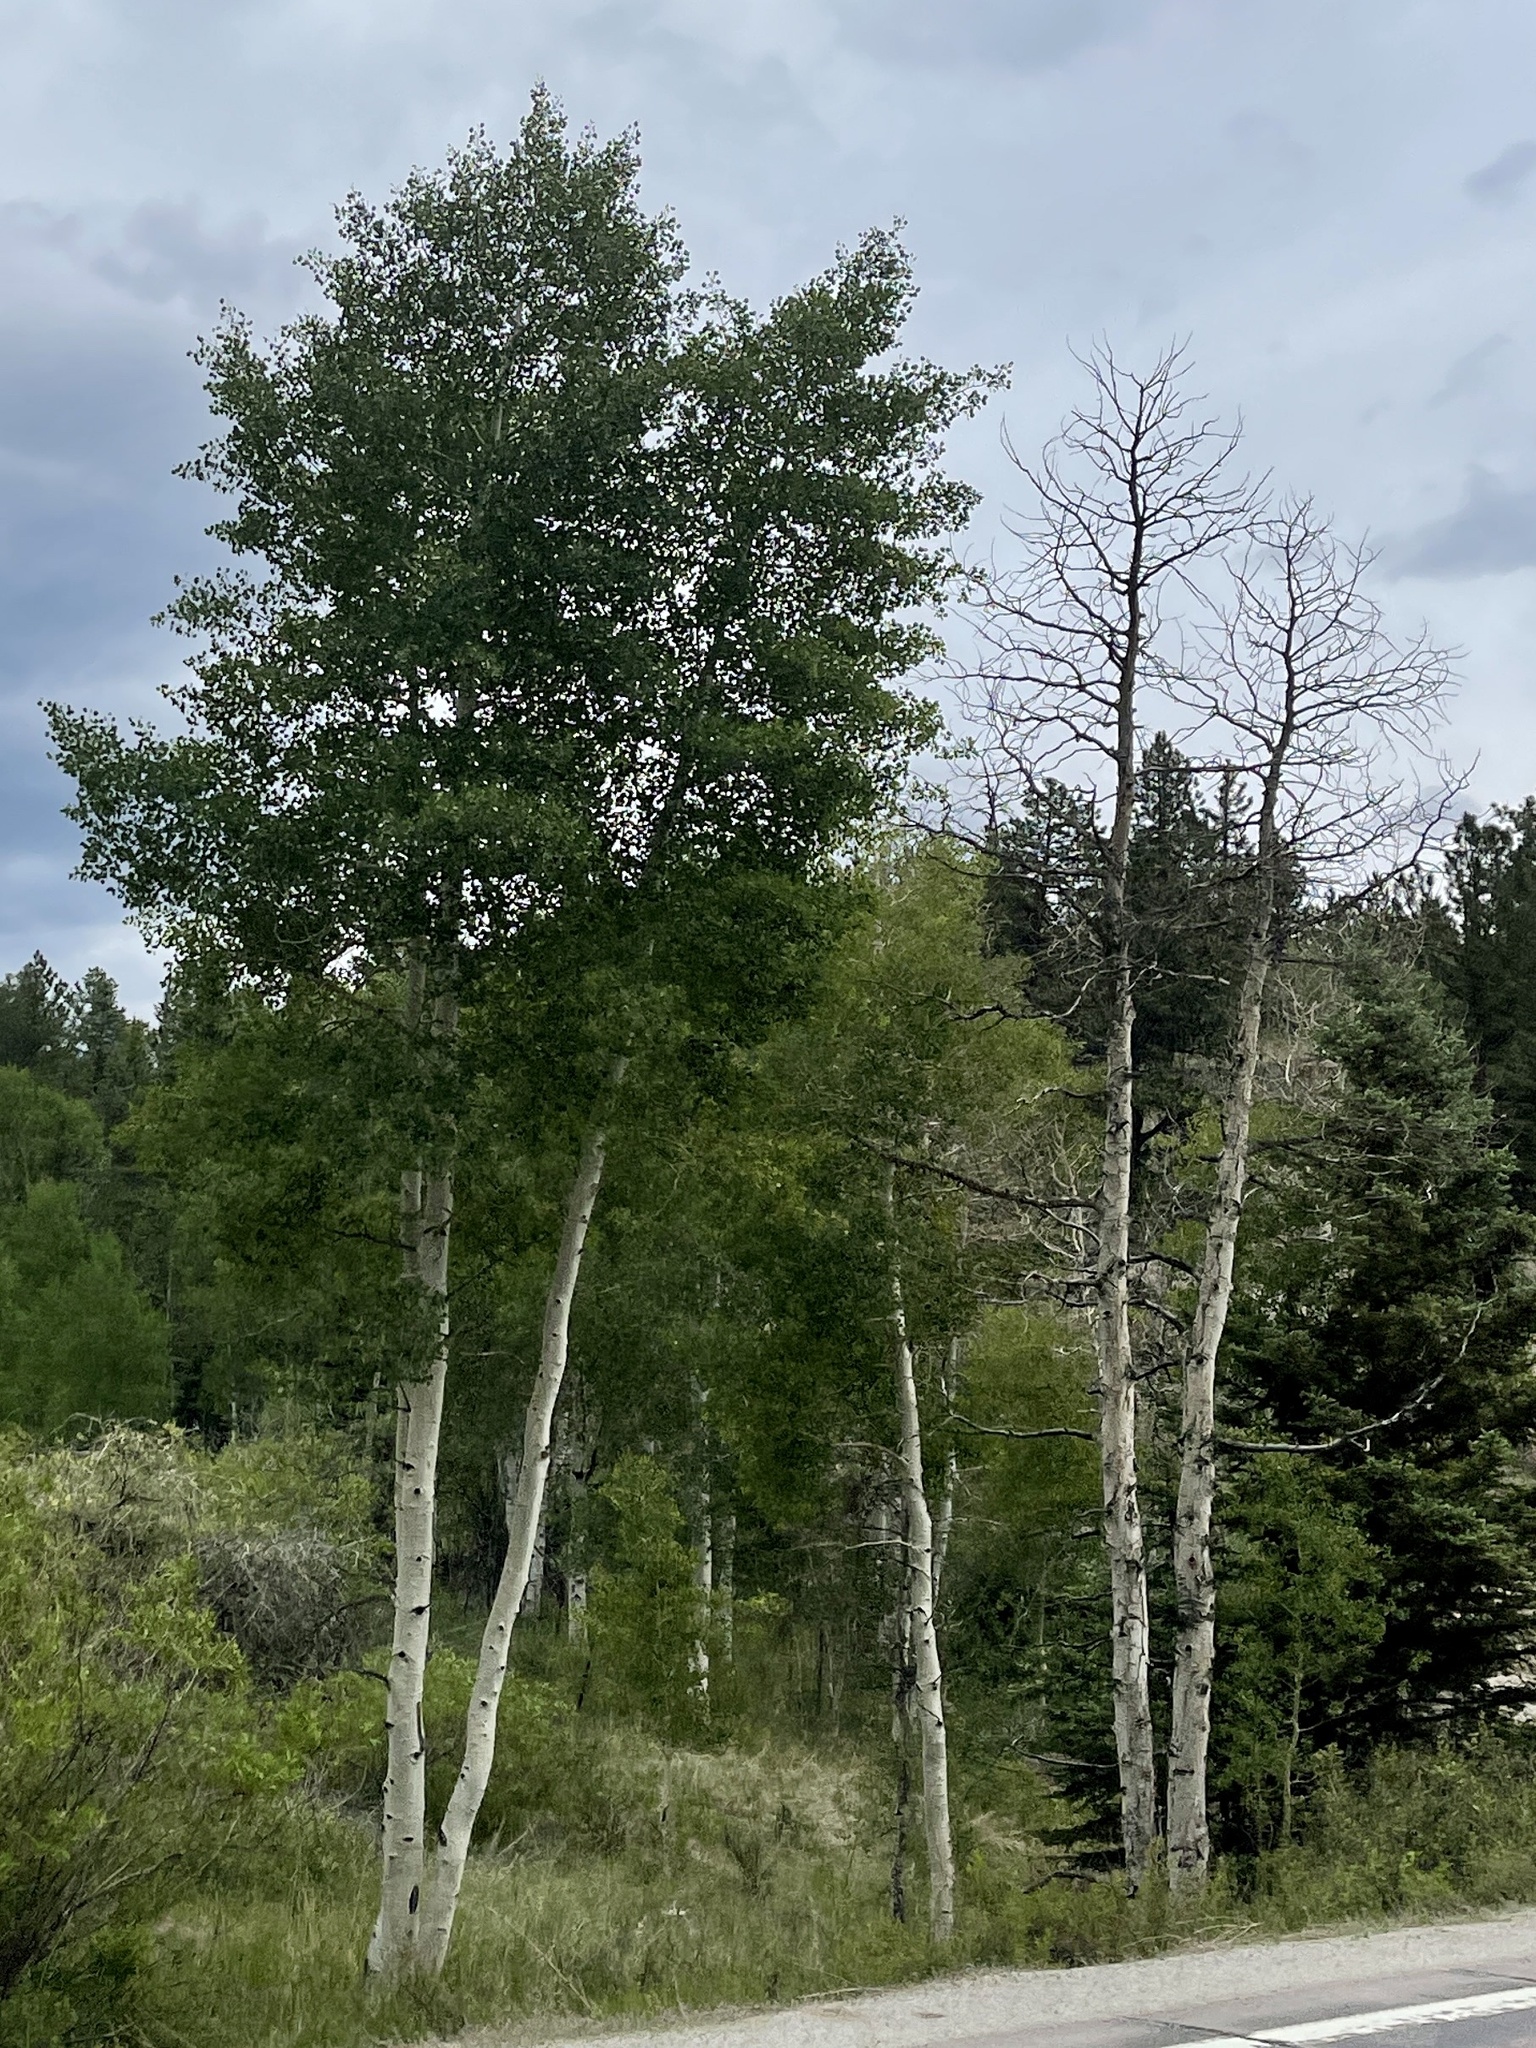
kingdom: Plantae
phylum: Tracheophyta
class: Magnoliopsida
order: Malpighiales
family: Salicaceae
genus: Populus
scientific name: Populus tremuloides
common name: Quaking aspen
